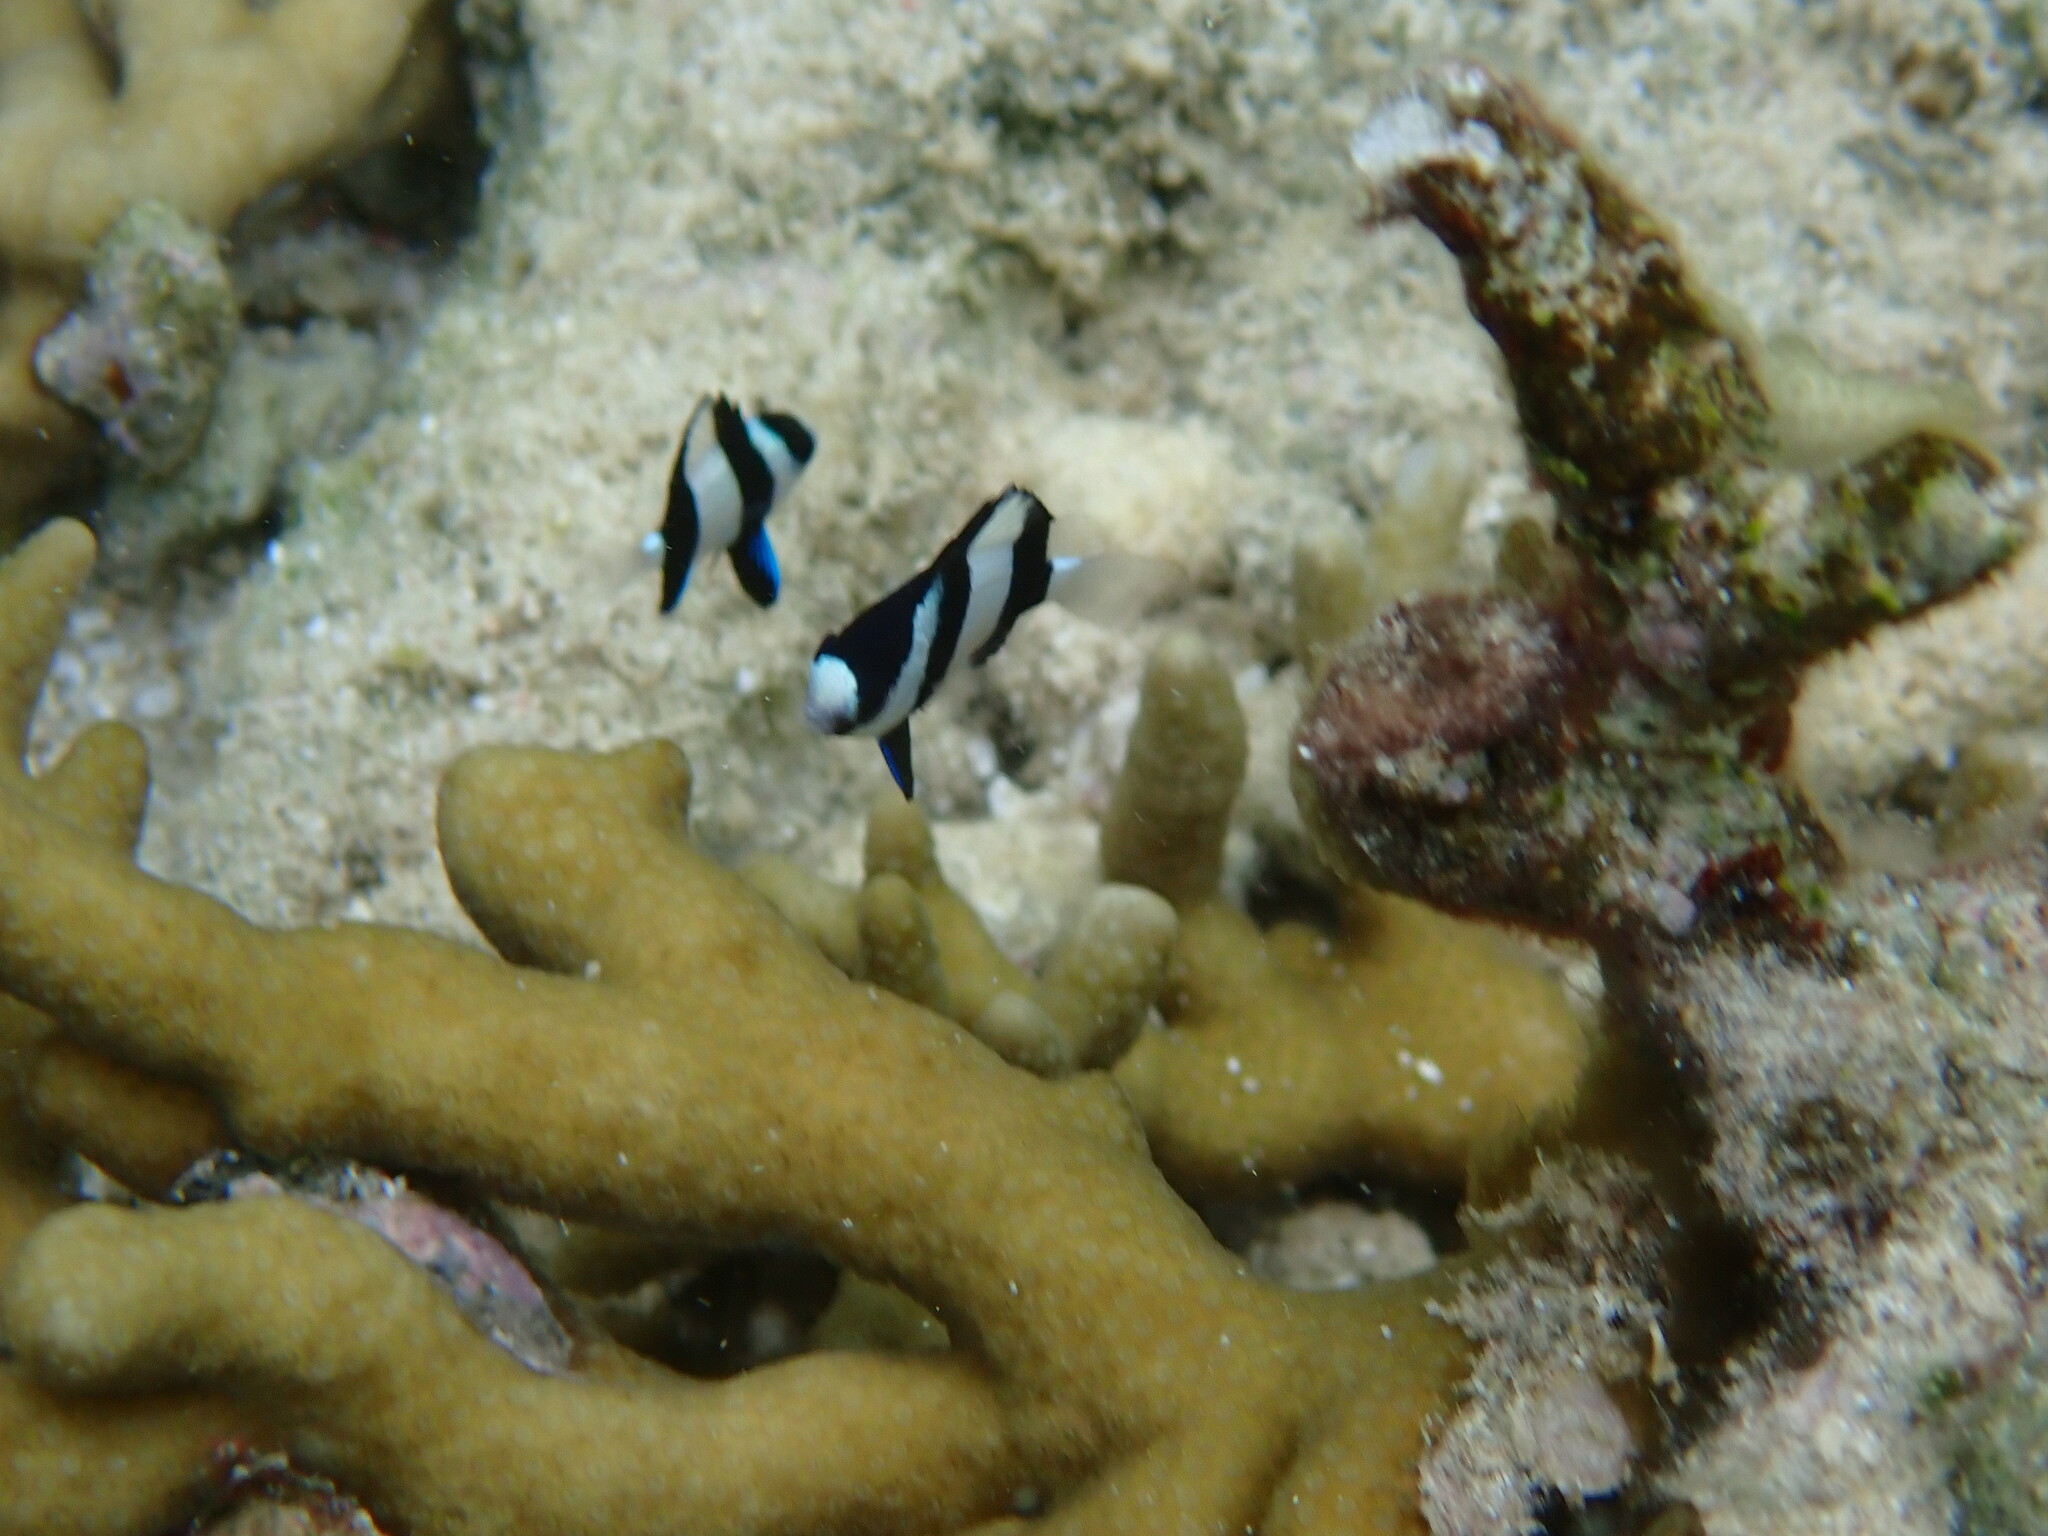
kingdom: Animalia
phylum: Chordata
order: Perciformes
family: Pomacentridae
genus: Dascyllus
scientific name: Dascyllus aruanus
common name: Humbug dascyllus
